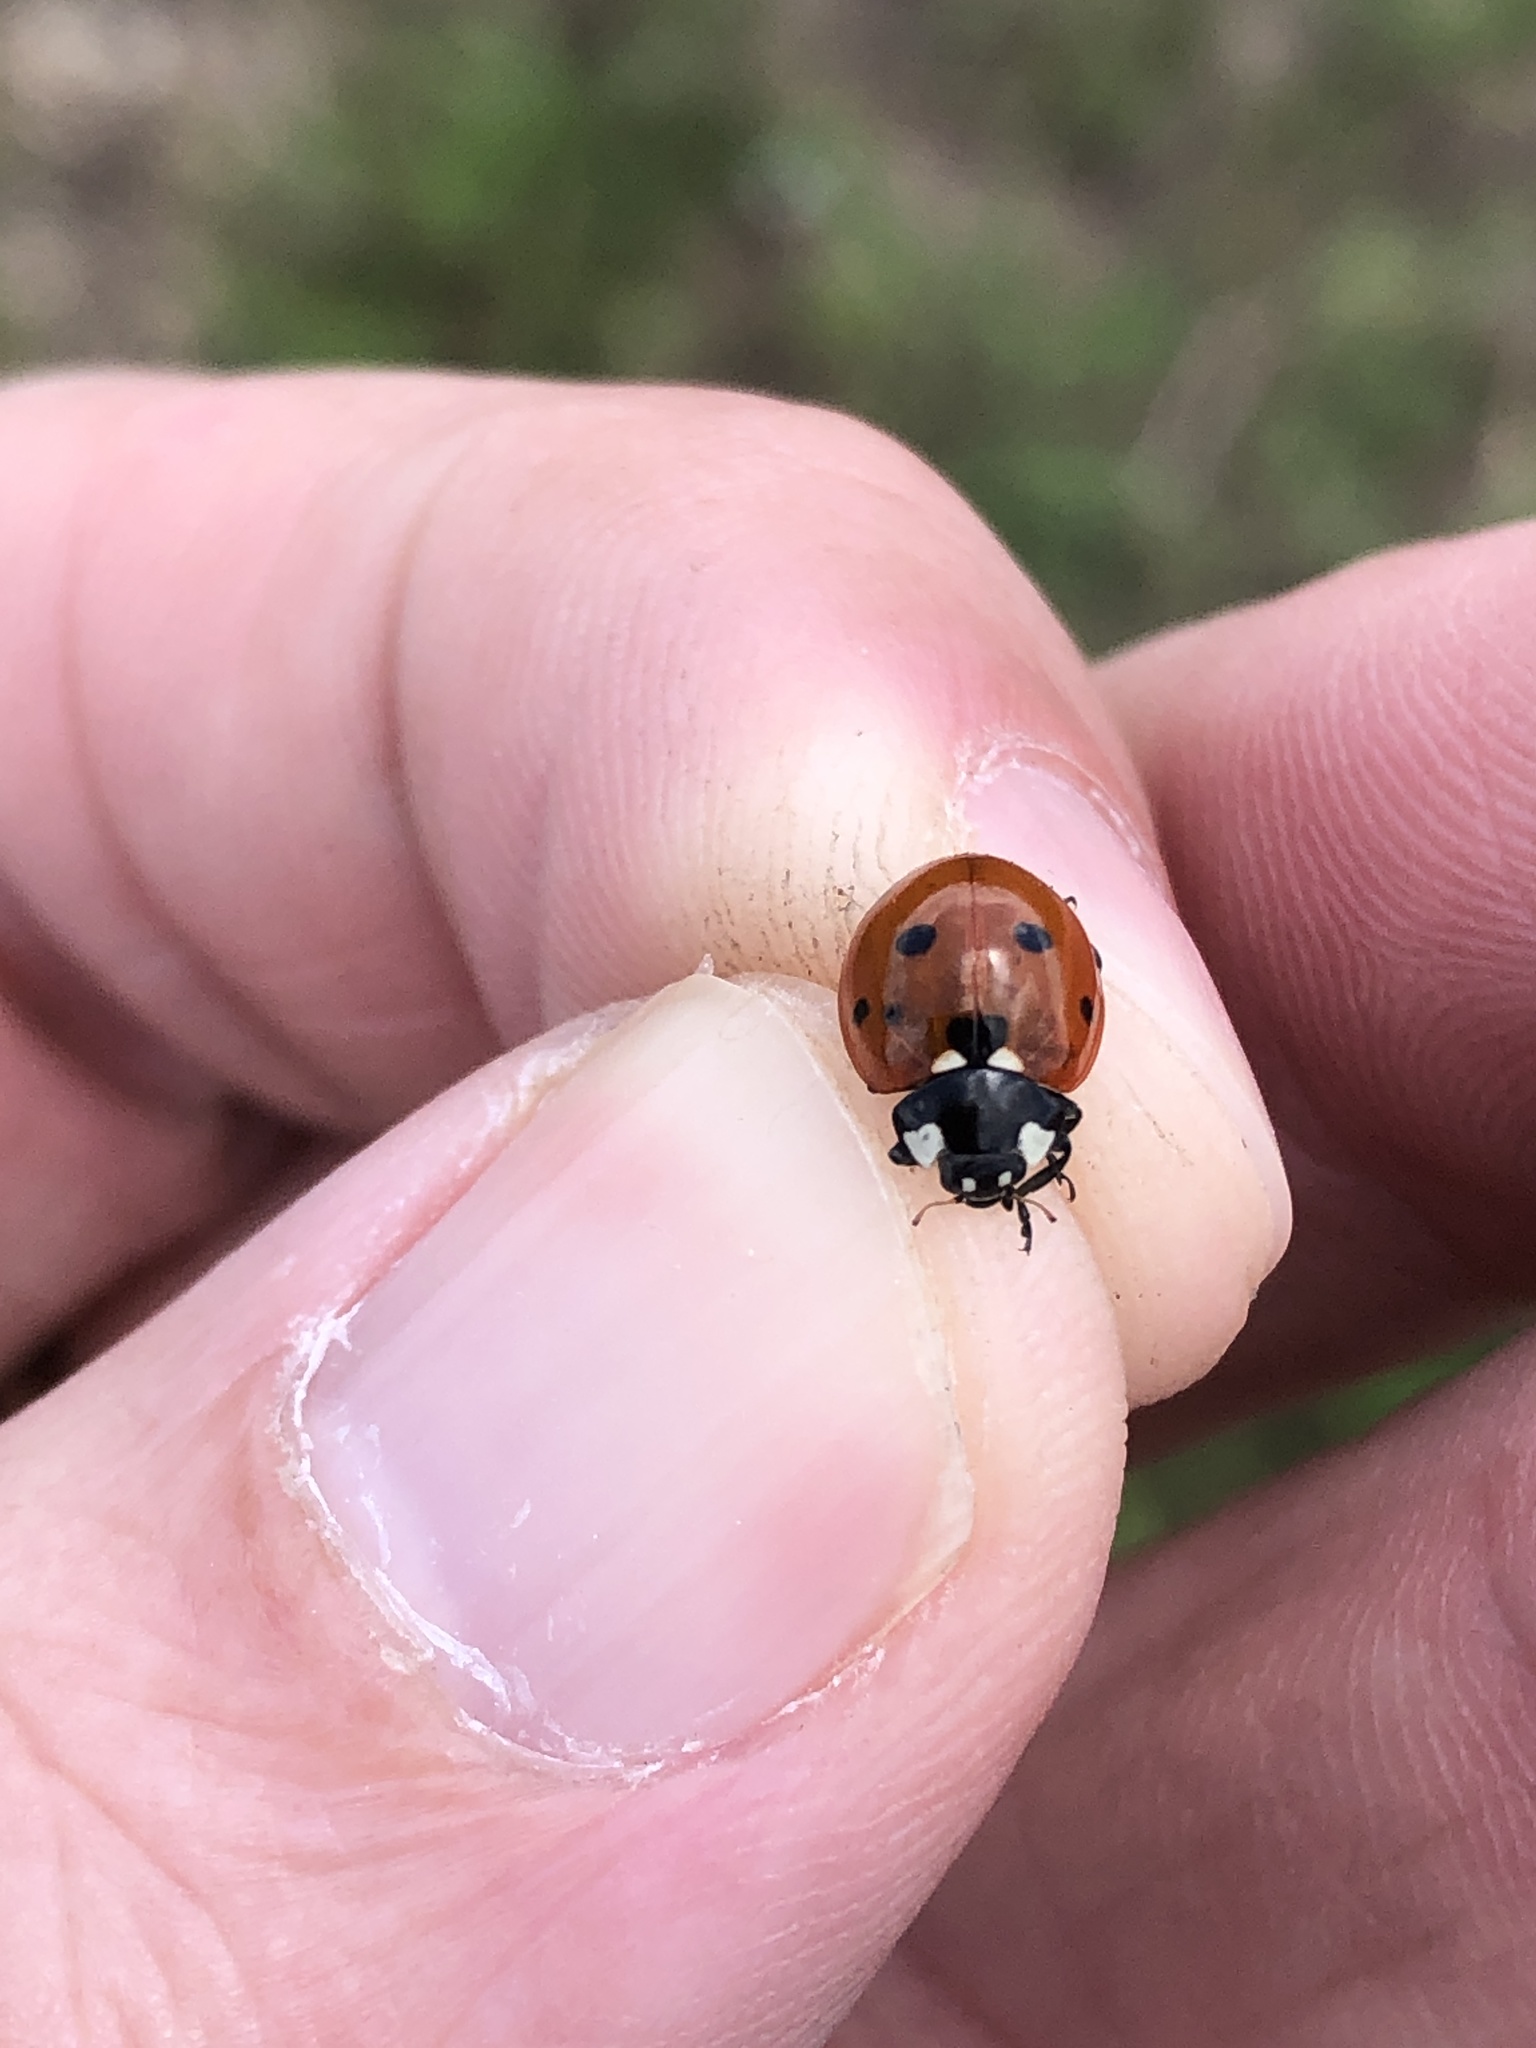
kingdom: Animalia
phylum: Arthropoda
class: Insecta
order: Coleoptera
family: Coccinellidae
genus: Coccinella
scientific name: Coccinella septempunctata
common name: Sevenspotted lady beetle
